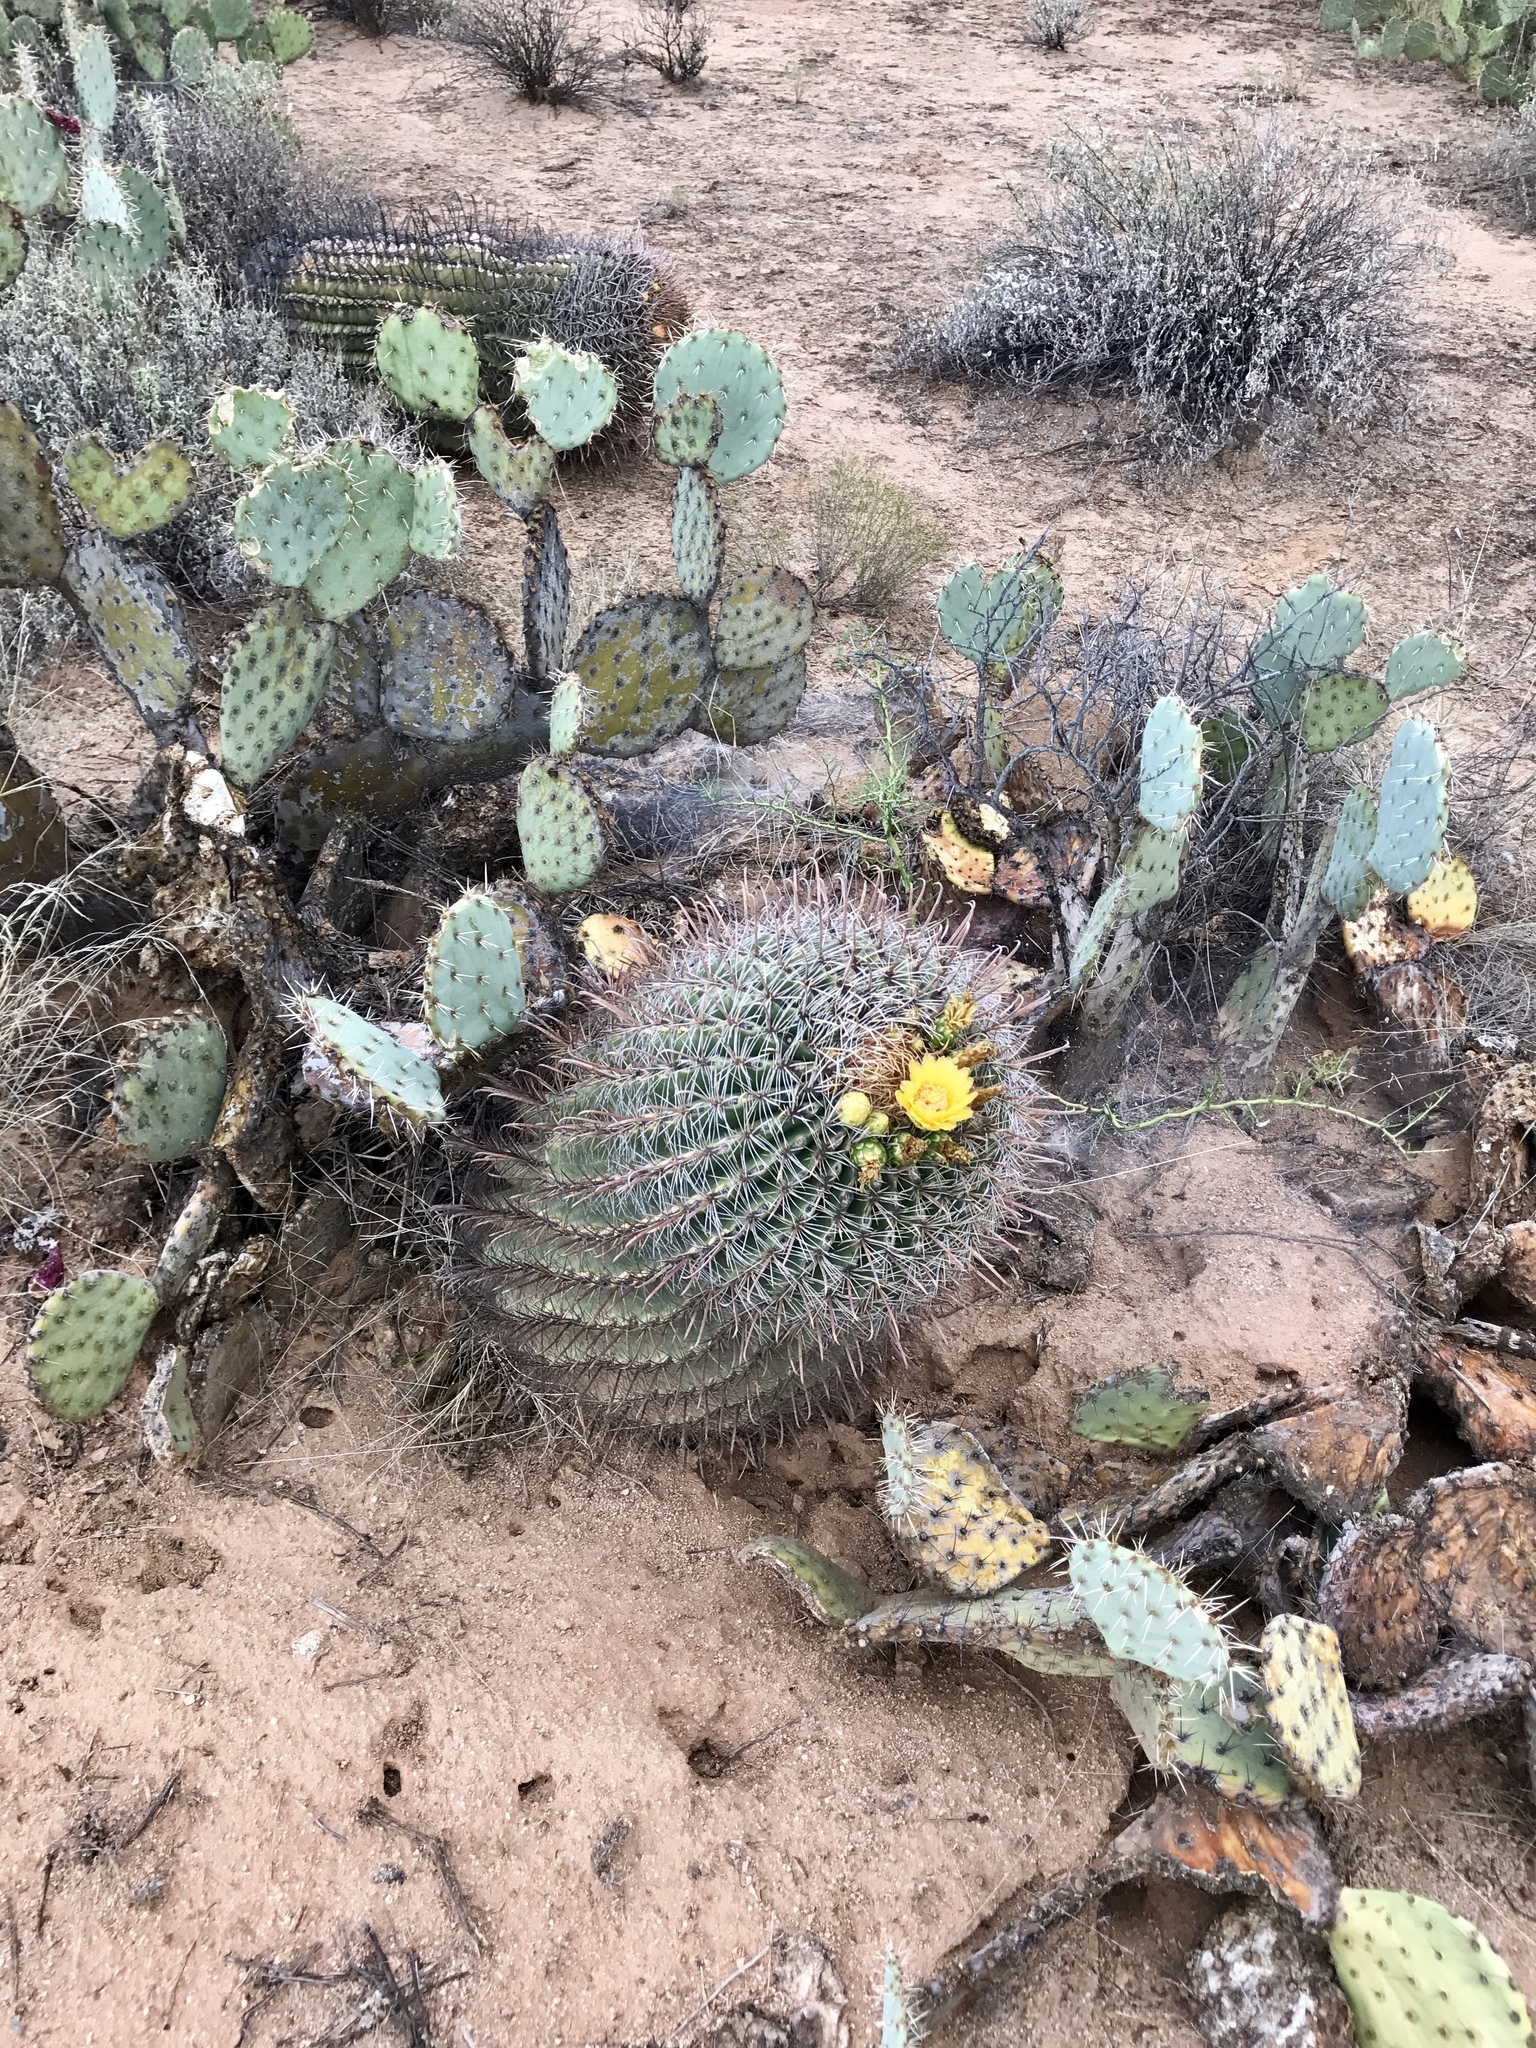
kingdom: Plantae
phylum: Tracheophyta
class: Magnoliopsida
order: Caryophyllales
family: Cactaceae
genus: Ferocactus
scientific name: Ferocactus wislizeni
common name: Candy barrel cactus
